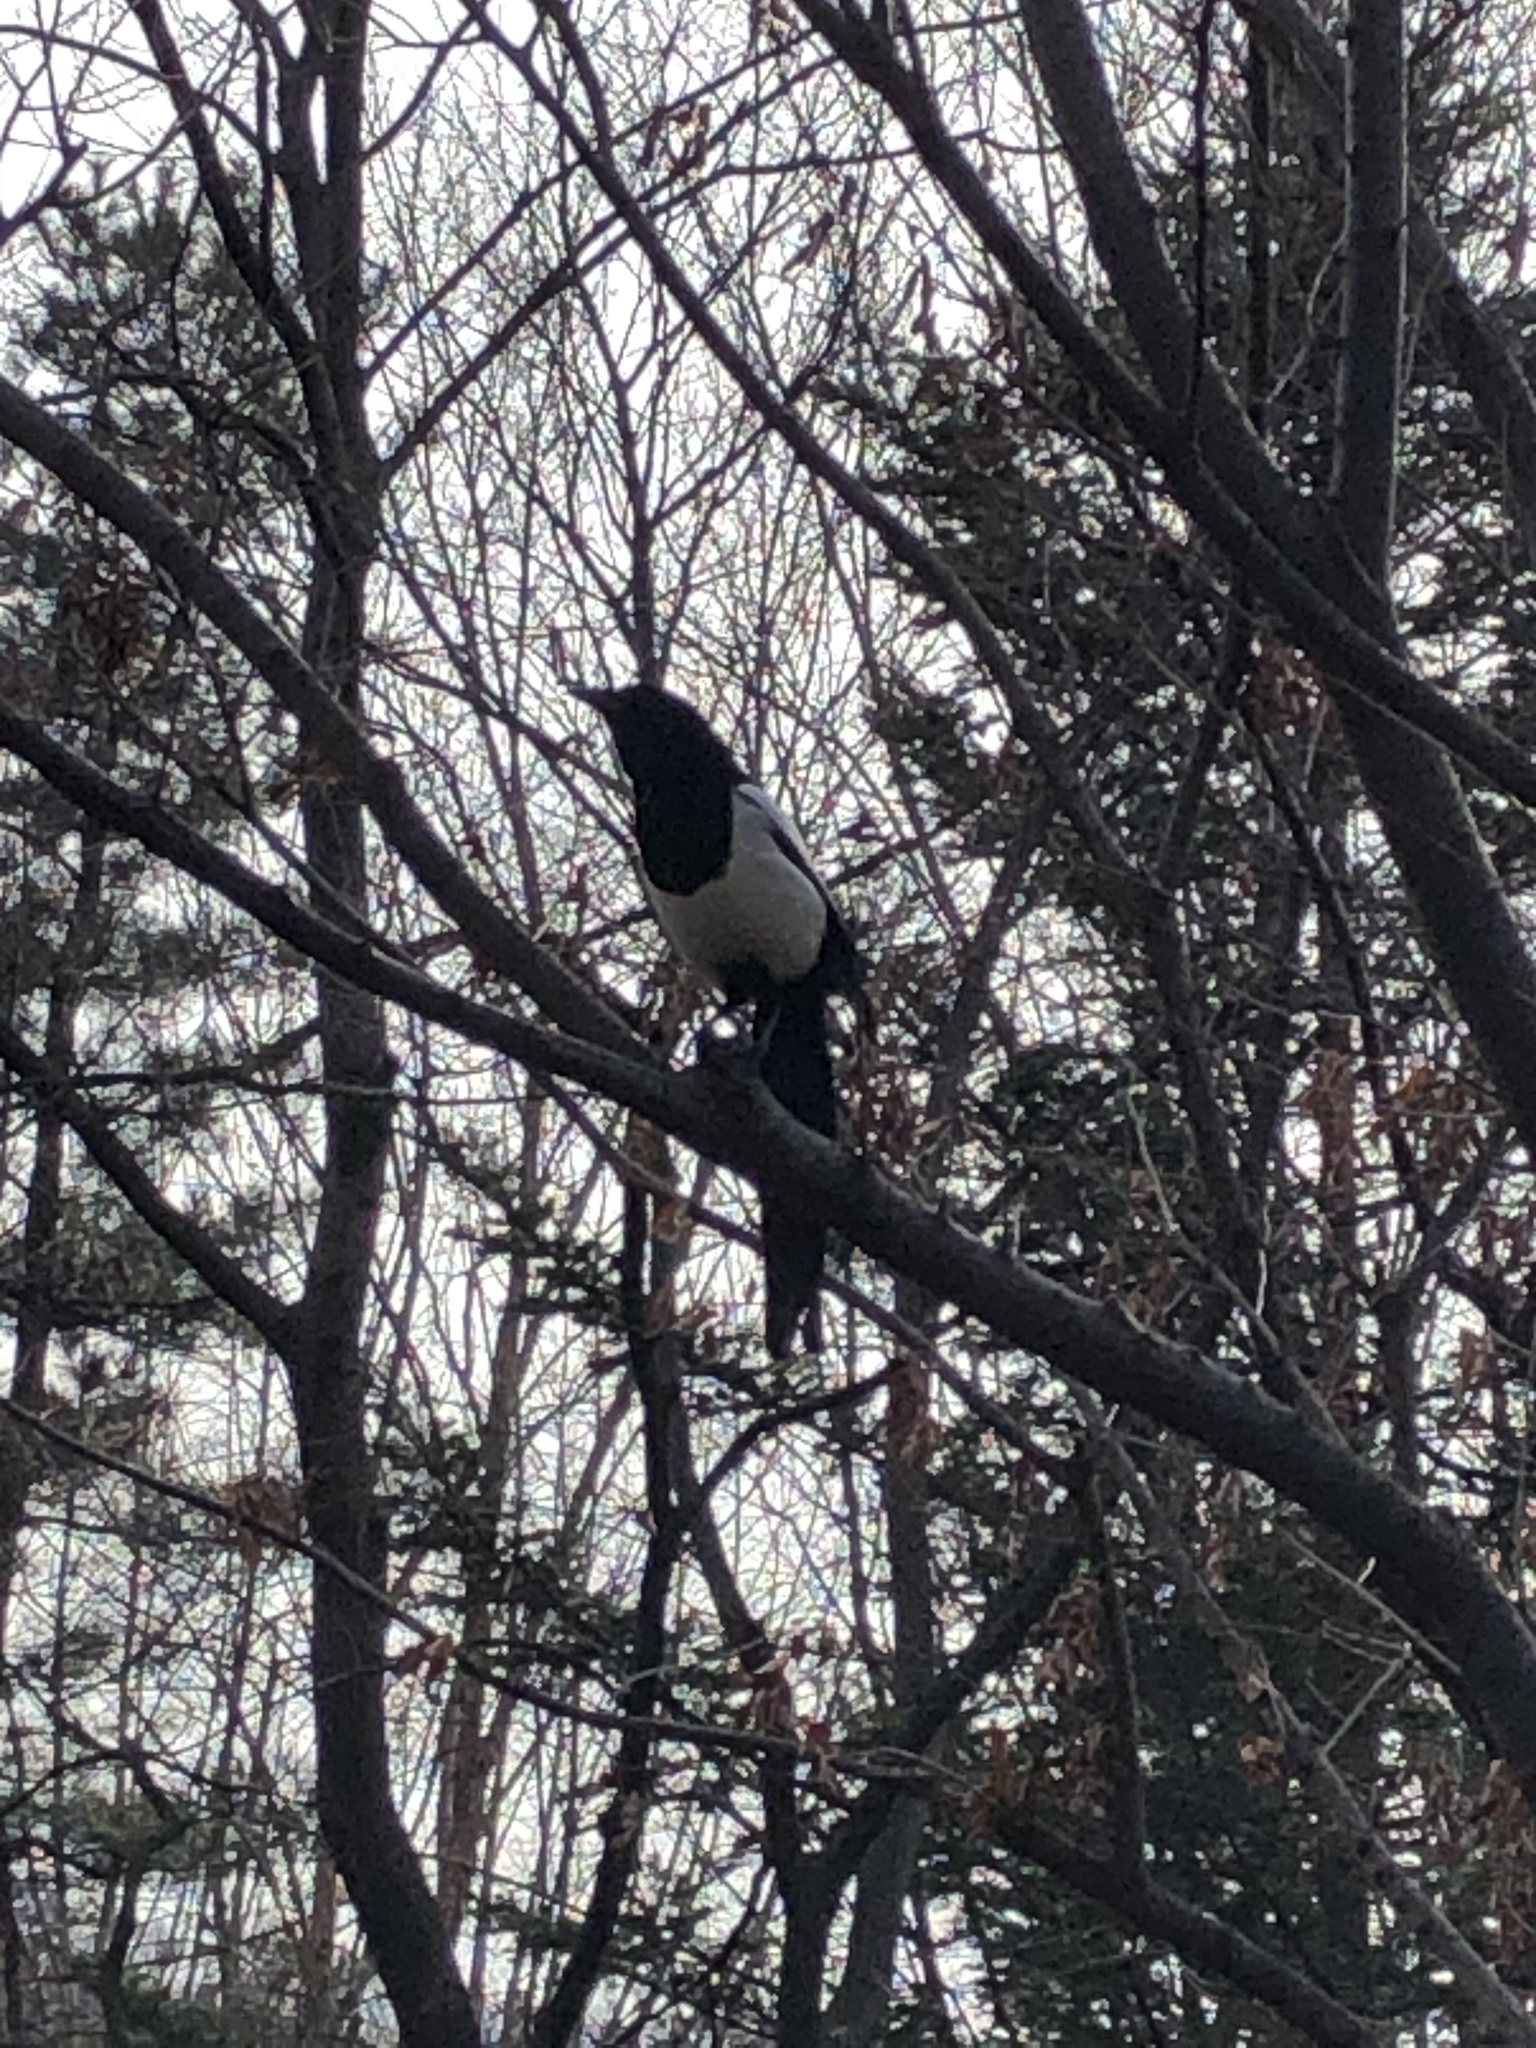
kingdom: Animalia
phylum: Chordata
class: Aves
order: Passeriformes
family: Corvidae
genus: Pica
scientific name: Pica serica
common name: Oriental magpie
